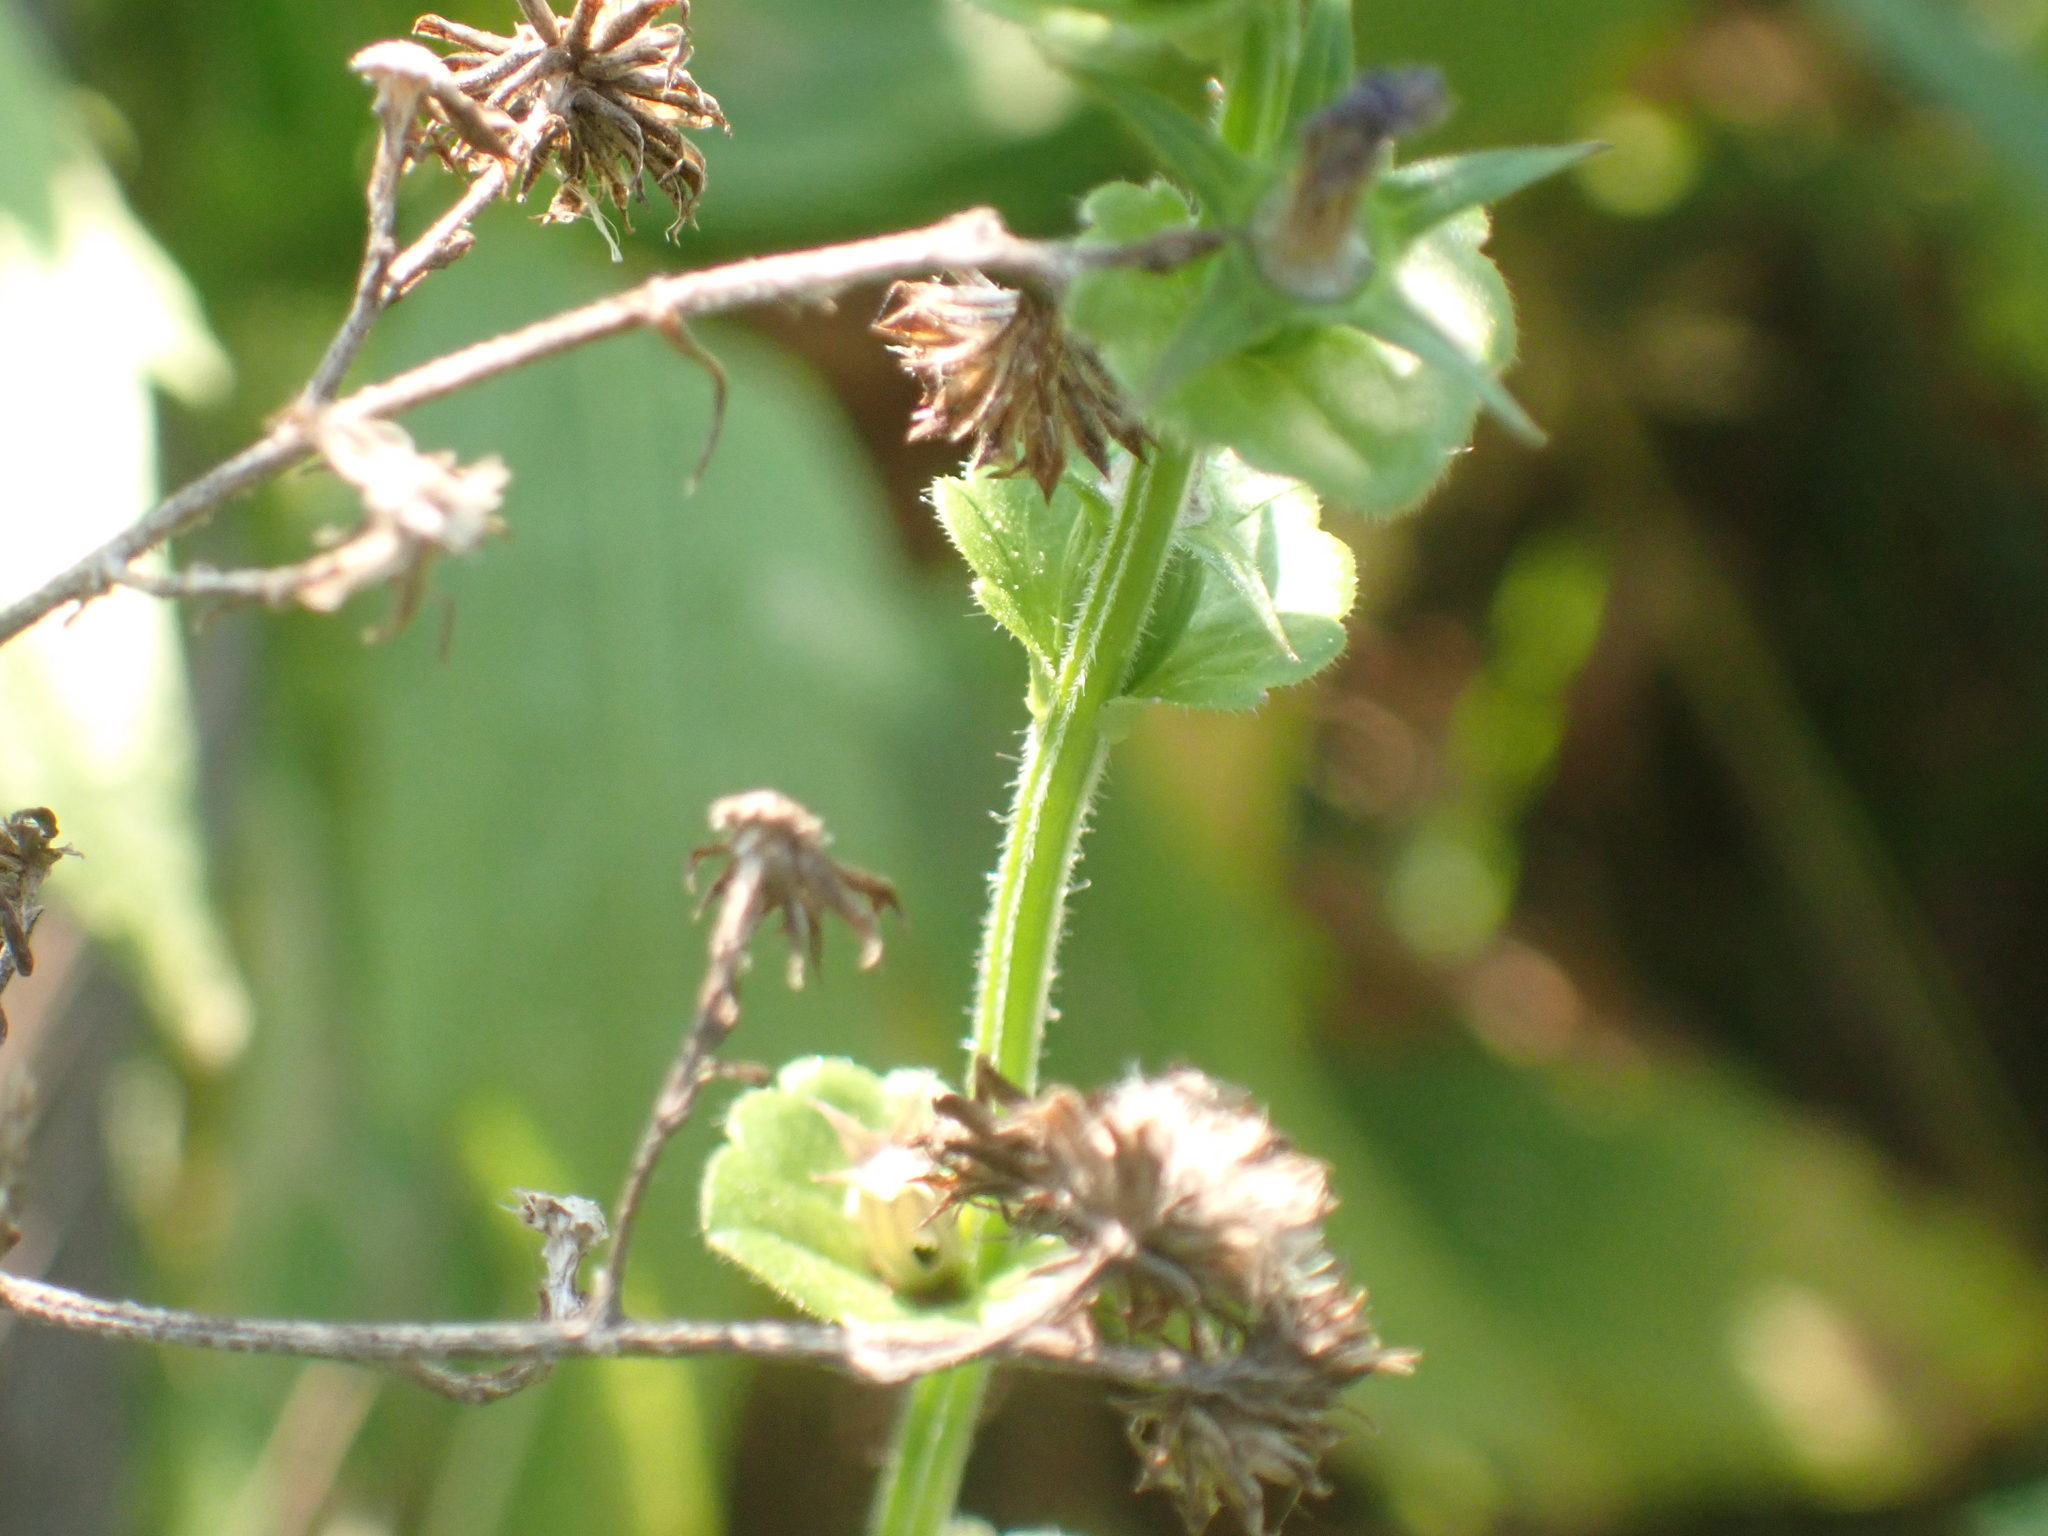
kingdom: Plantae
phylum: Tracheophyta
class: Magnoliopsida
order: Asterales
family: Campanulaceae
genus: Triodanis
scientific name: Triodanis perfoliata
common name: Clasping venus' looking-glass
